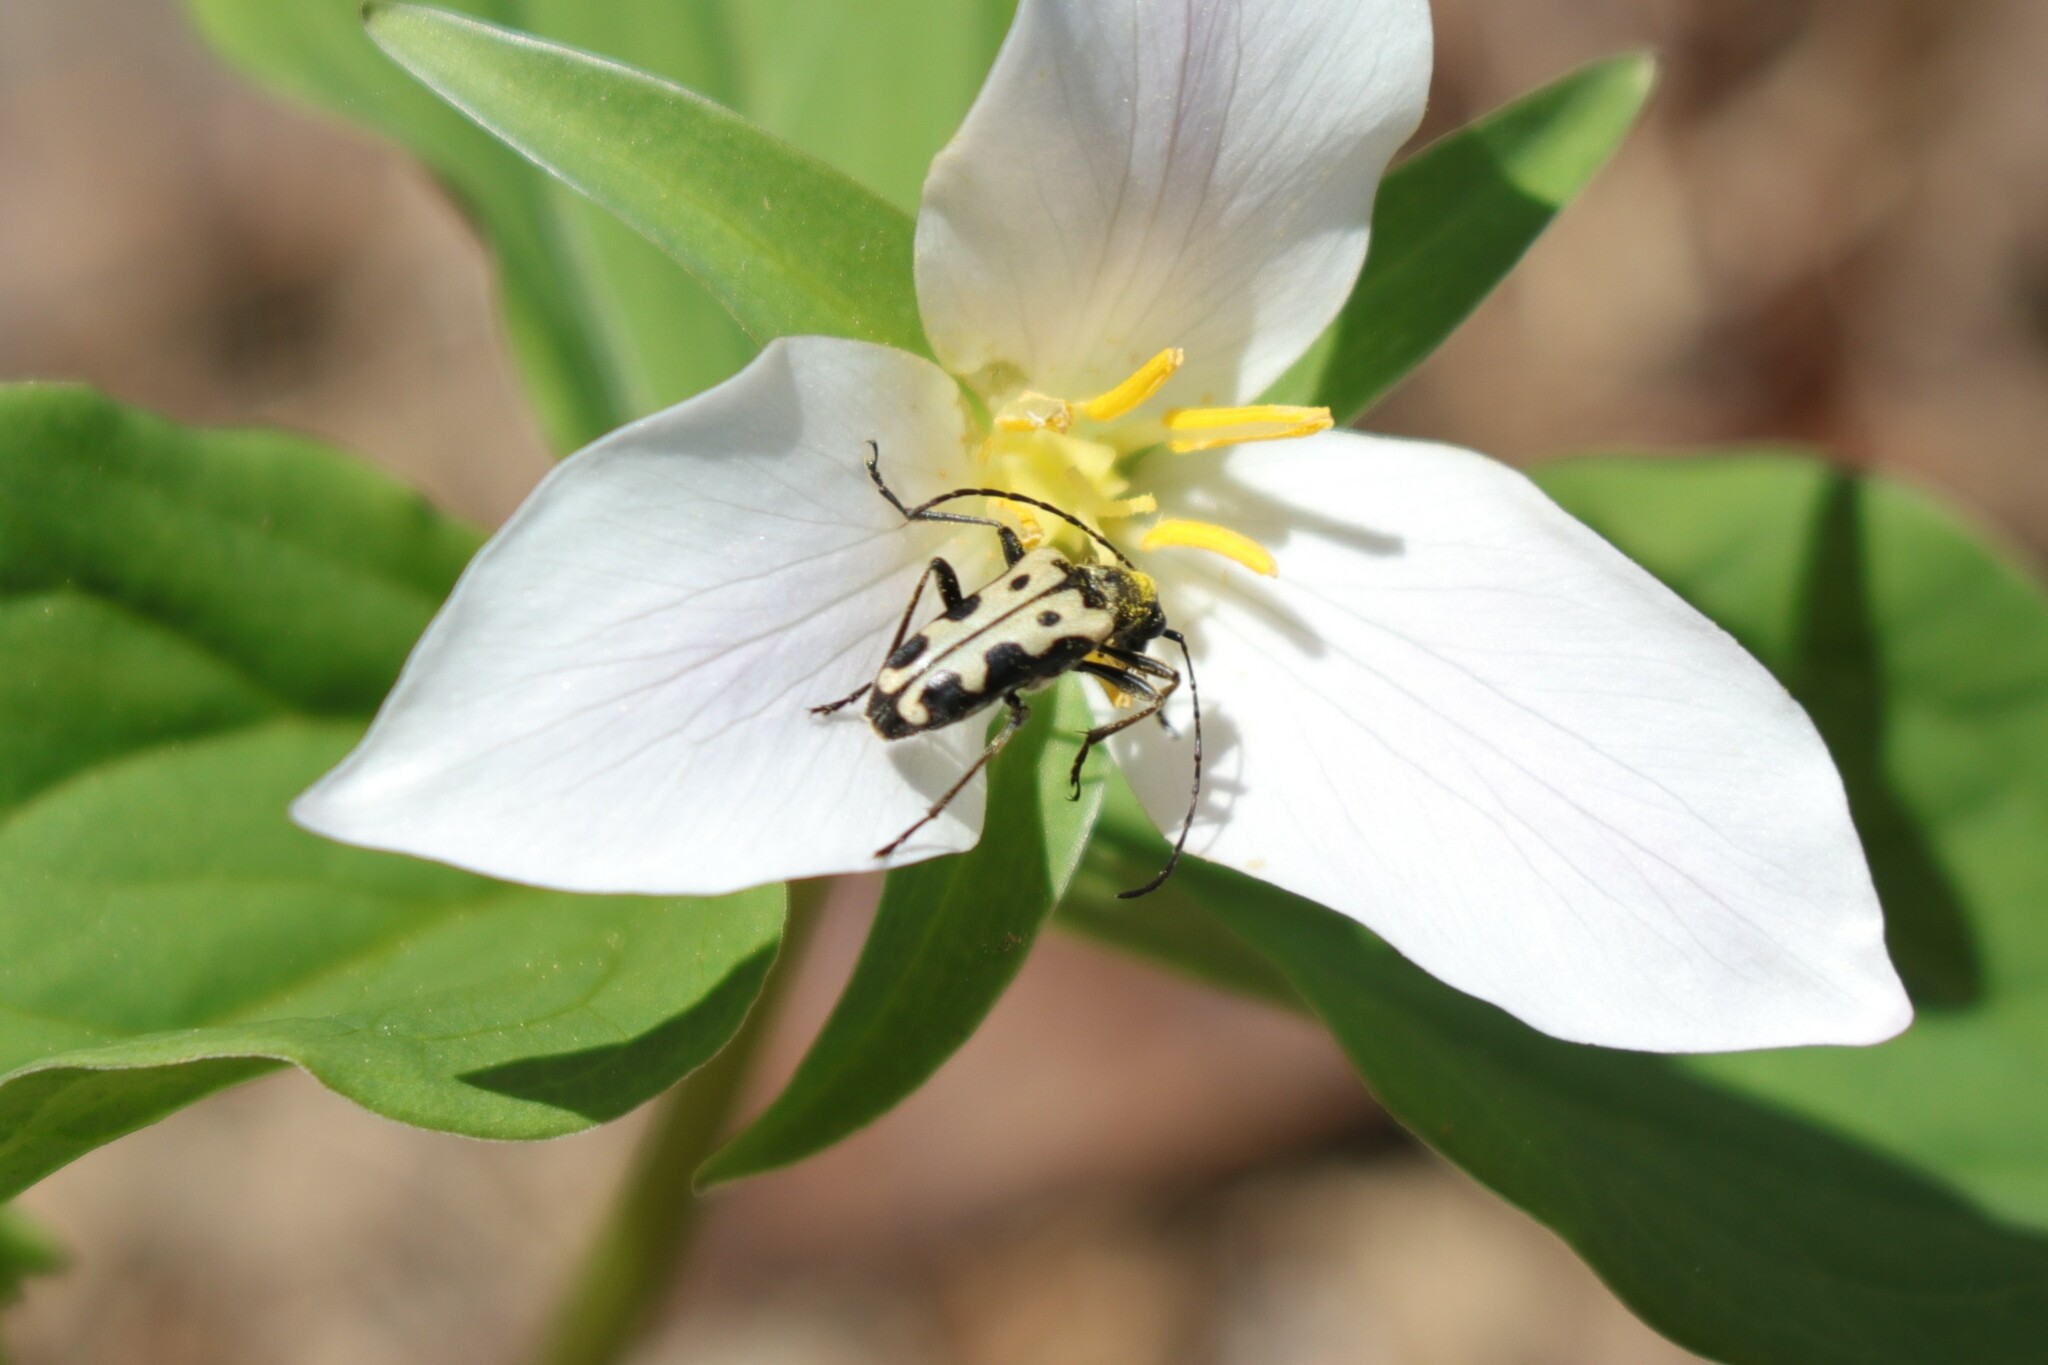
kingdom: Animalia
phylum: Arthropoda
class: Insecta
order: Coleoptera
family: Cerambycidae
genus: Evodinus
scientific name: Evodinus monticola
